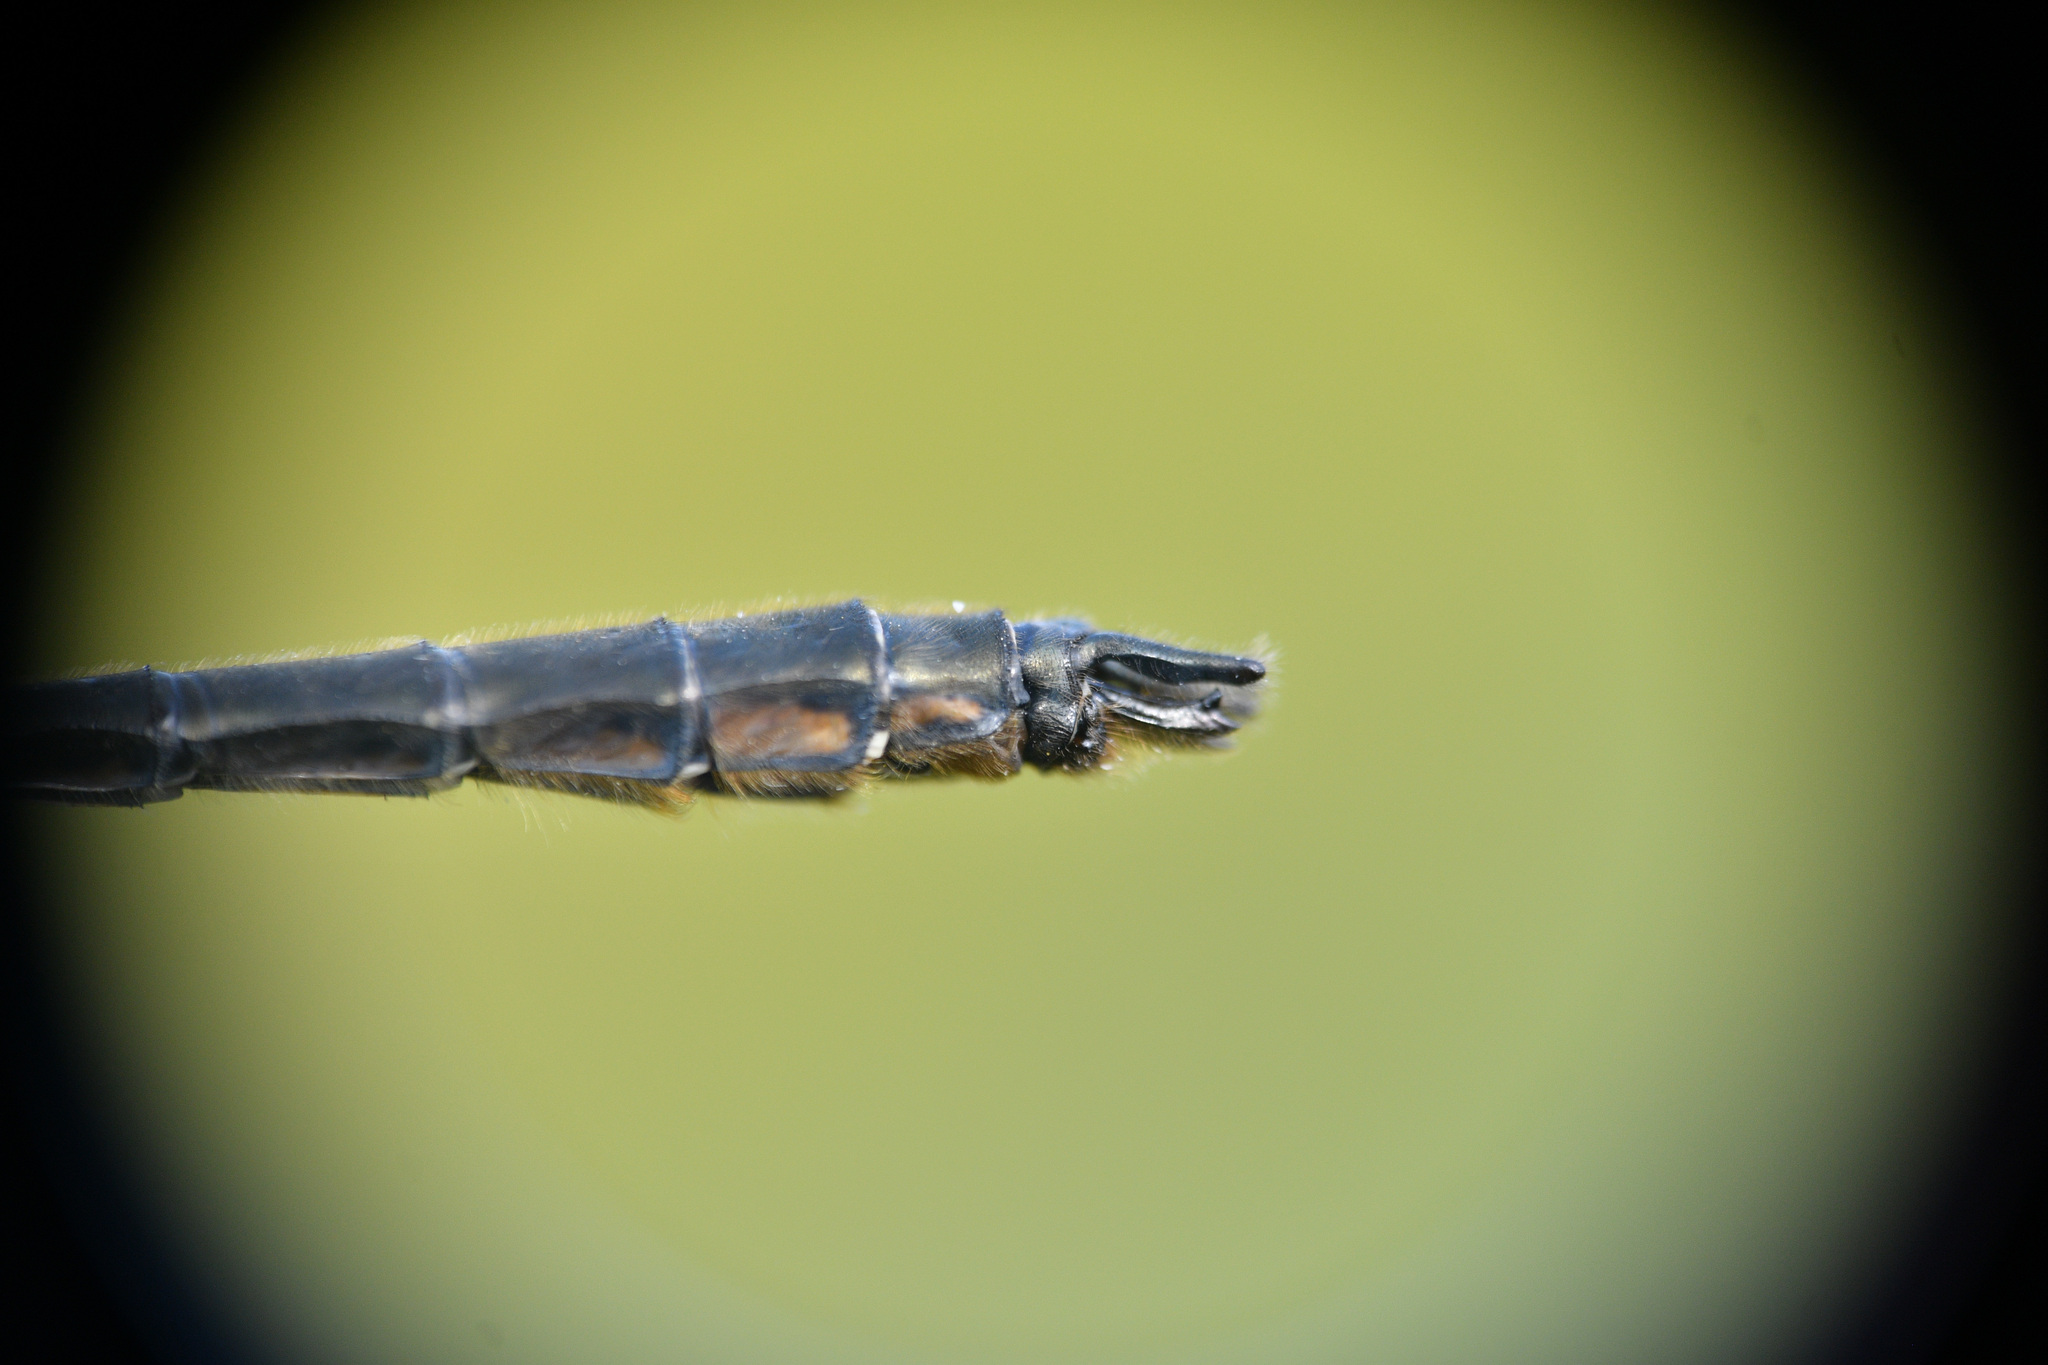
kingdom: Animalia
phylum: Arthropoda
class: Insecta
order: Odonata
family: Corduliidae
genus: Cordulia
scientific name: Cordulia shurtleffii
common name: American emerald
